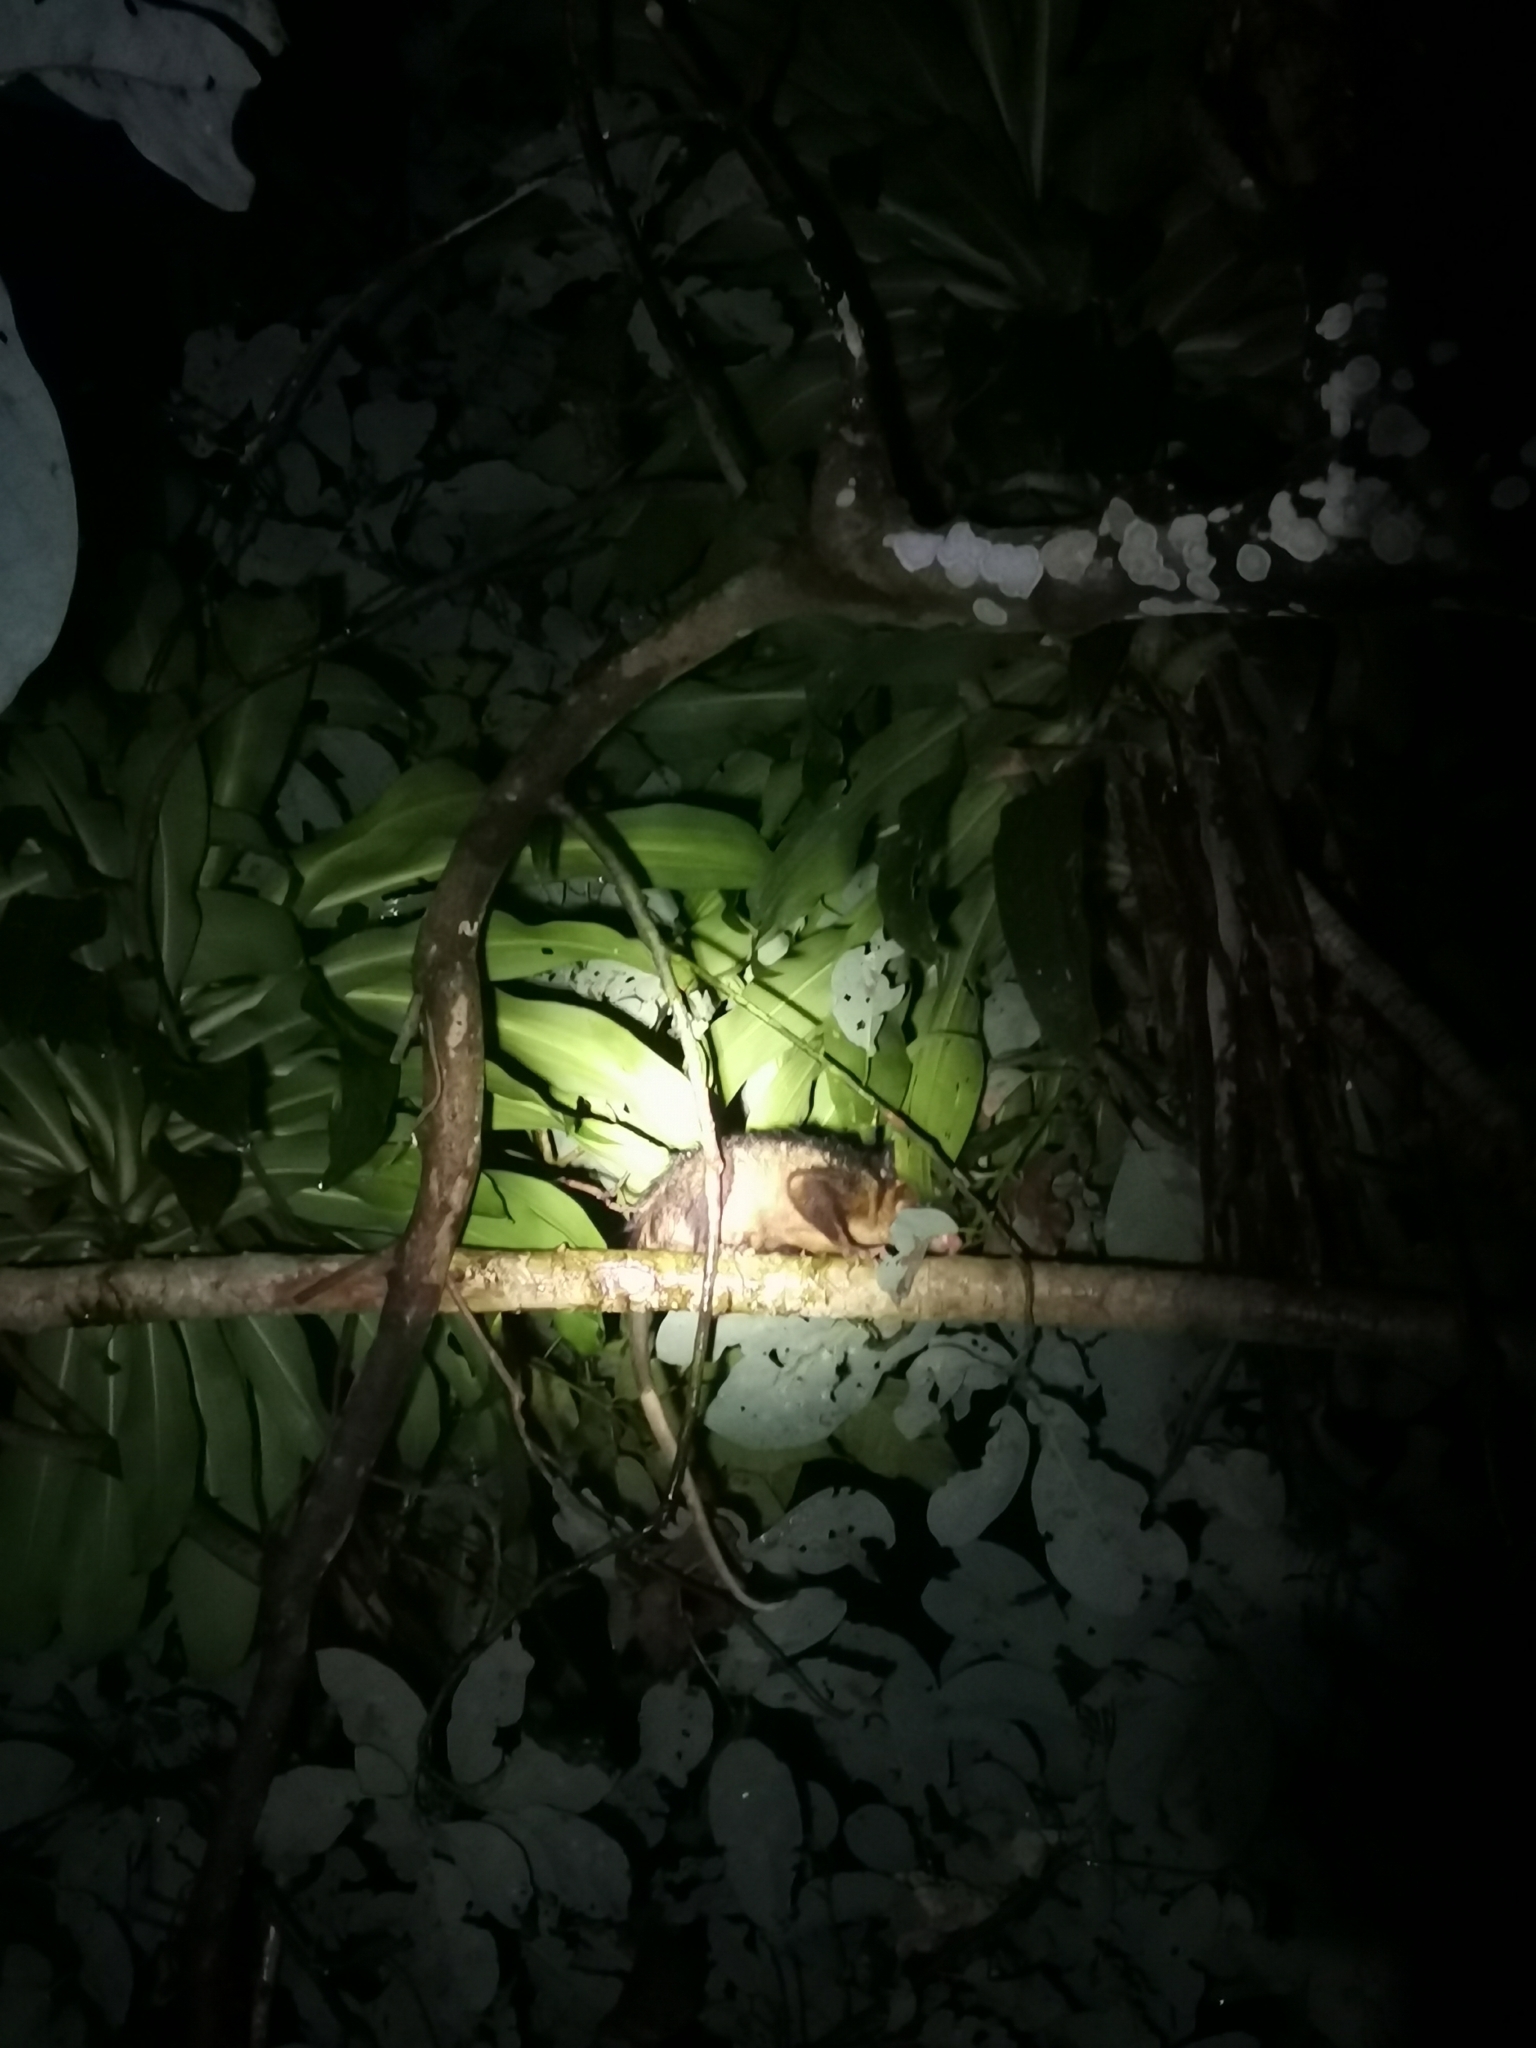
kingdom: Animalia
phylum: Chordata
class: Mammalia
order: Didelphimorphia
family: Didelphidae
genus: Didelphis
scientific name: Didelphis marsupialis
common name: Common opossum
